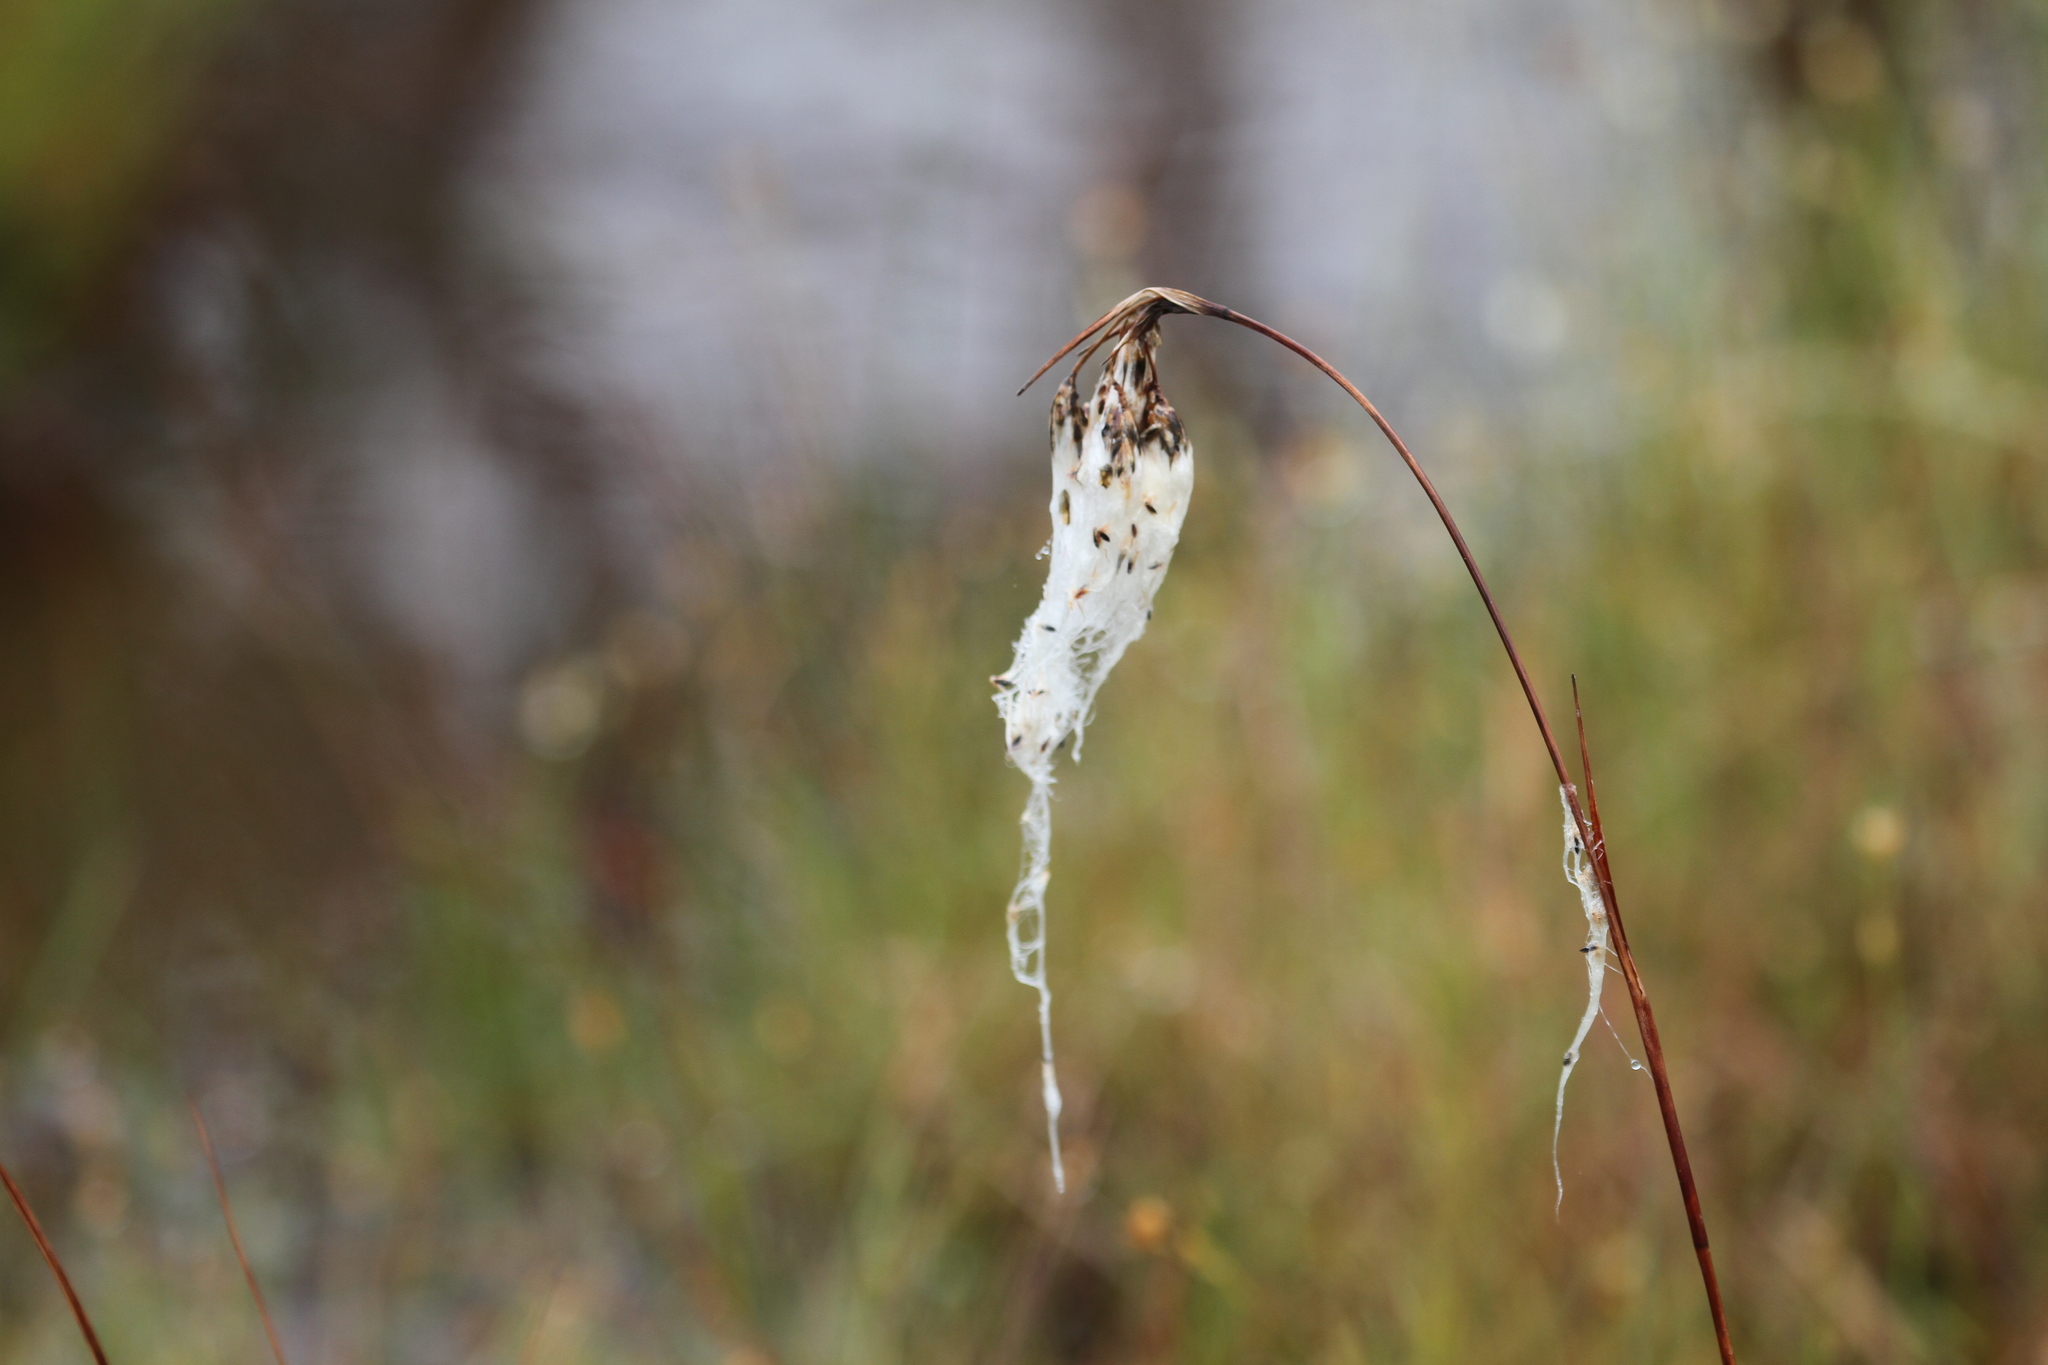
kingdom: Plantae
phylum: Tracheophyta
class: Liliopsida
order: Poales
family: Cyperaceae
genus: Eriophorum
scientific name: Eriophorum angustifolium
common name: Common cottongrass
